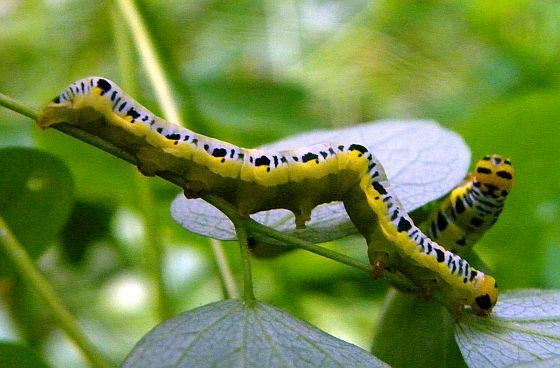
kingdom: Animalia
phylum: Arthropoda
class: Insecta
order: Lepidoptera
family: Erebidae
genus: Calyptra
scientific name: Calyptra canadensis
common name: Canadian owlet
